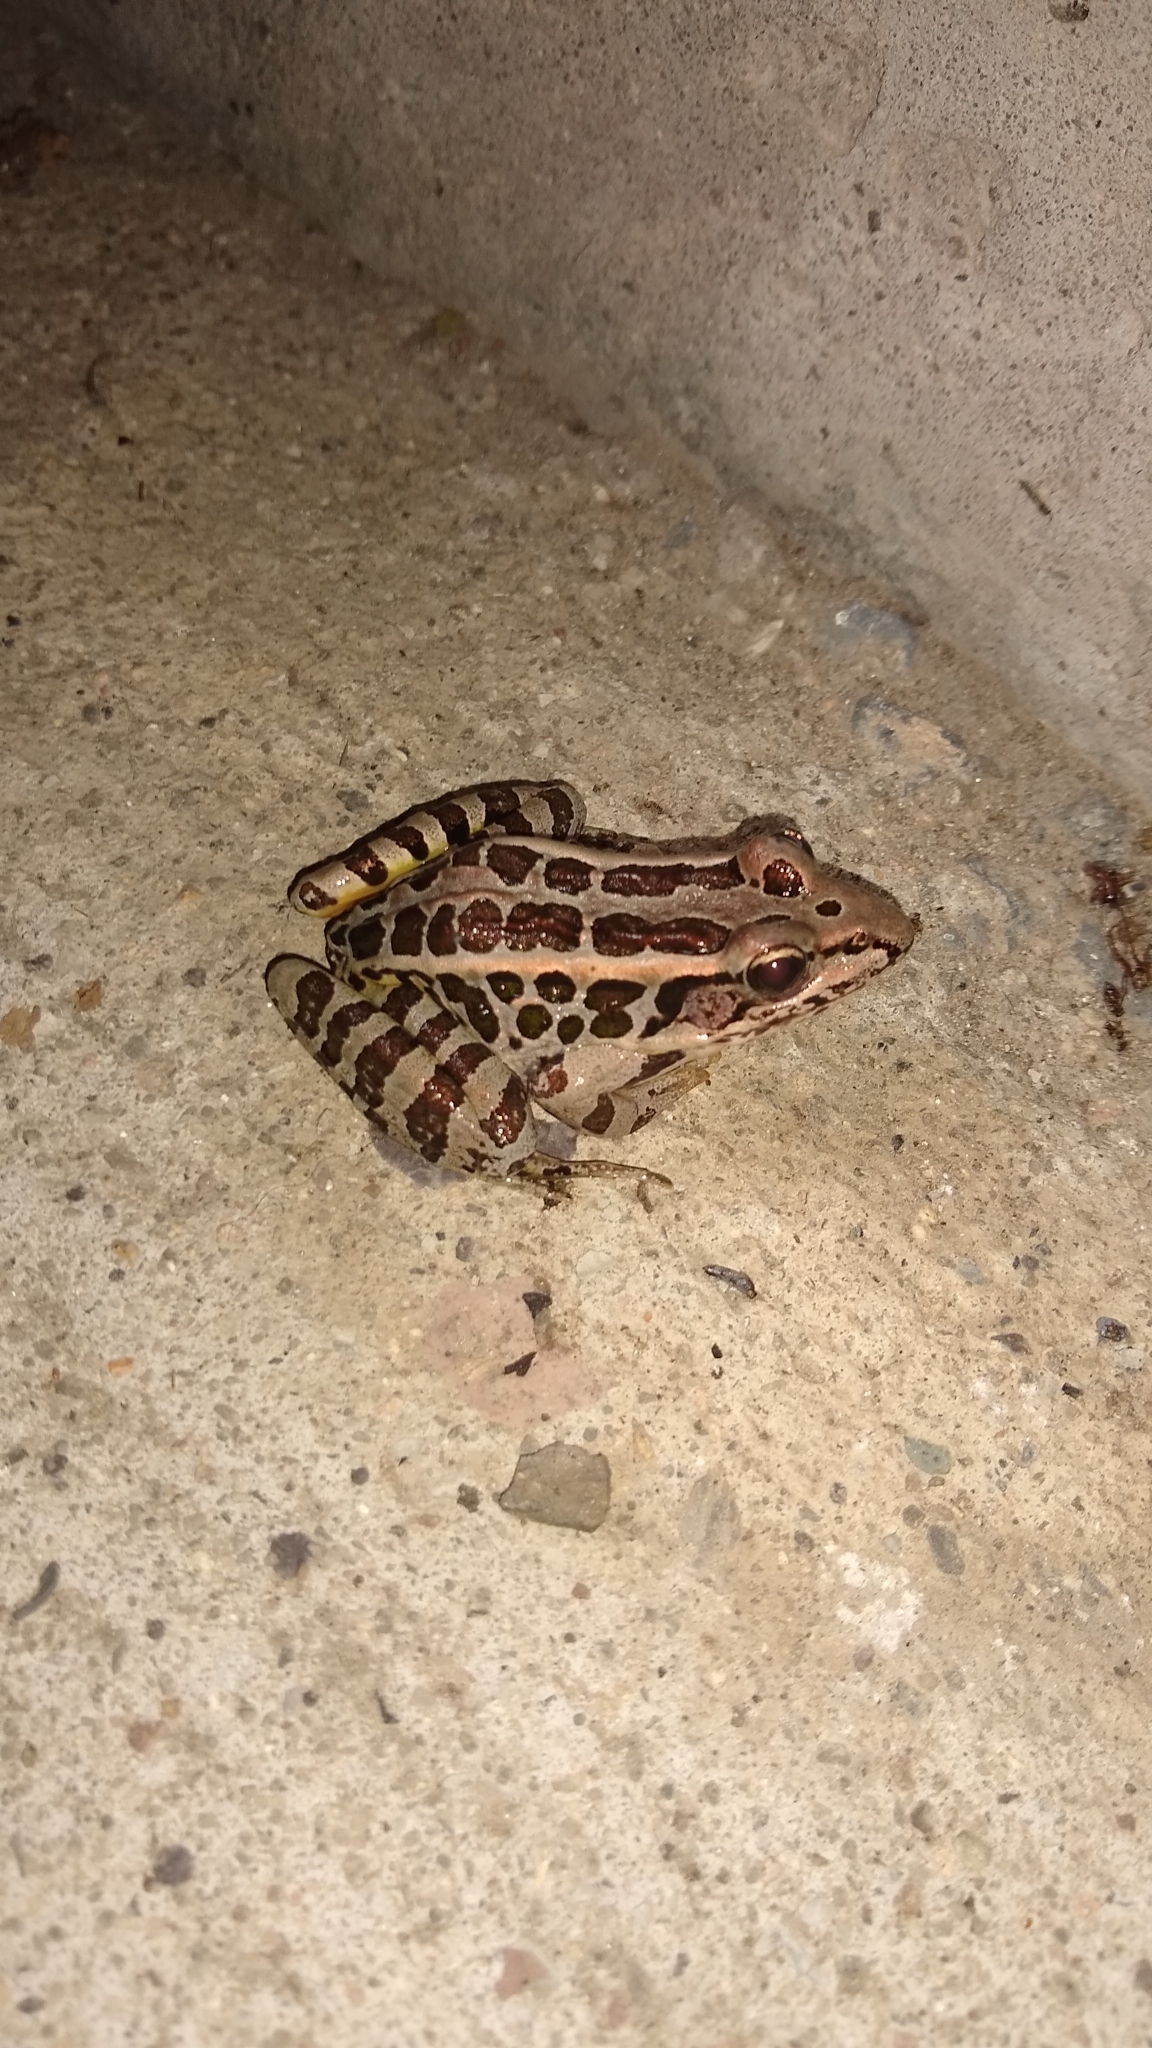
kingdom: Animalia
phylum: Chordata
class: Amphibia
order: Anura
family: Ranidae
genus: Lithobates
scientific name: Lithobates palustris
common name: Pickerel frog
